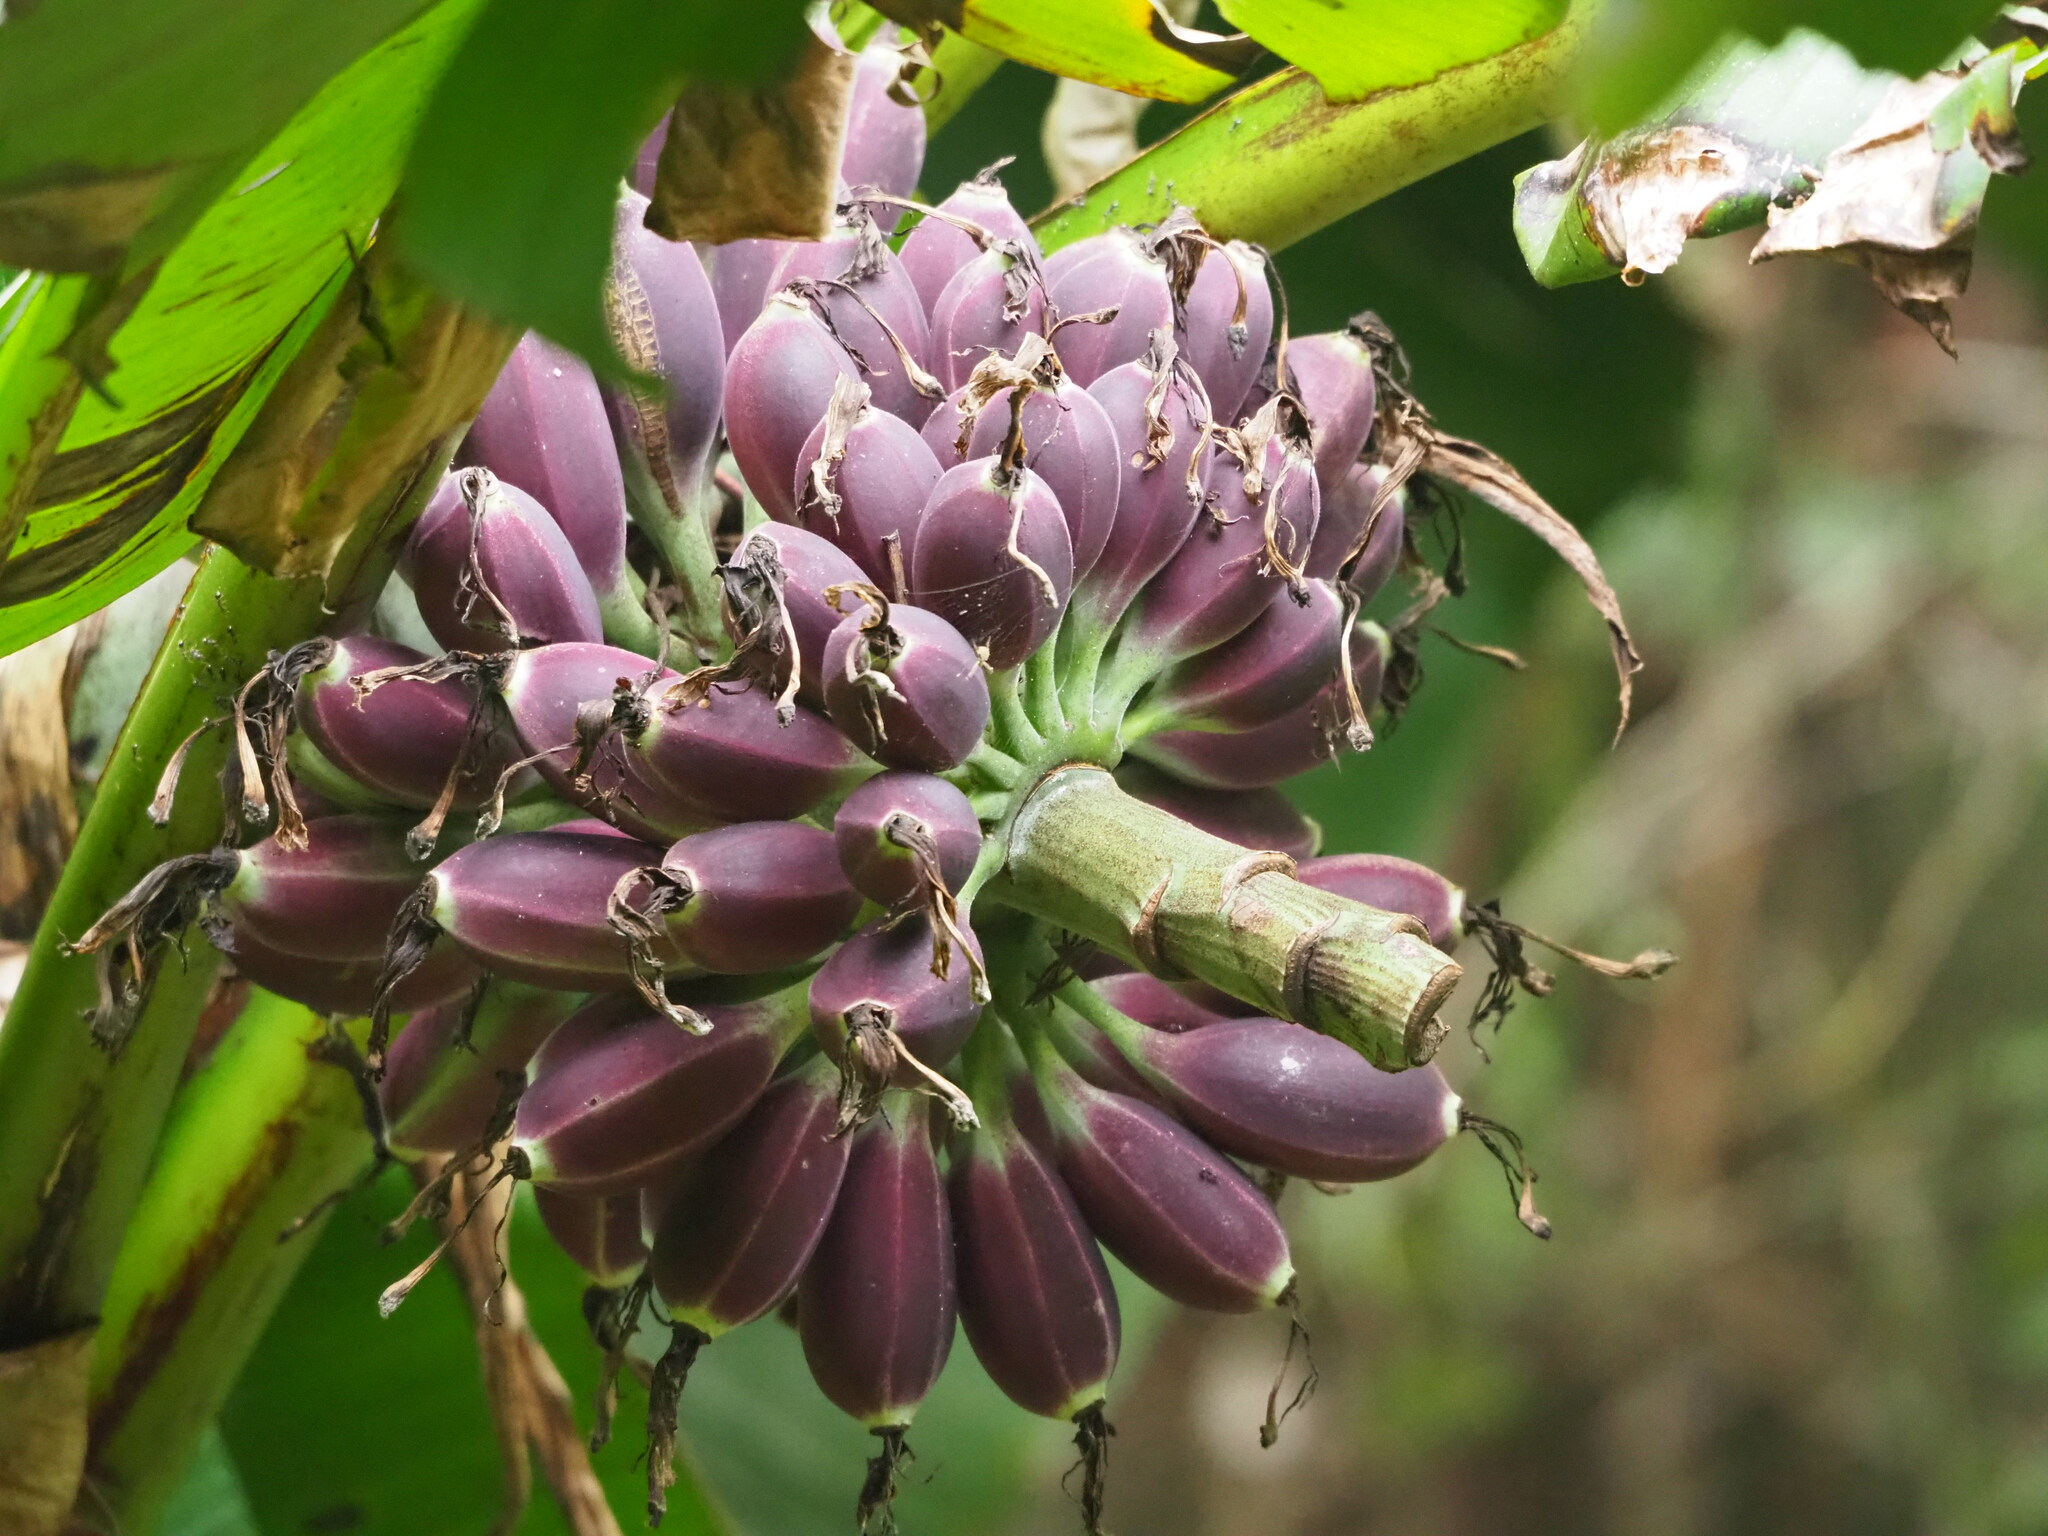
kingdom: Plantae
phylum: Tracheophyta
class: Liliopsida
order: Zingiberales
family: Musaceae
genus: Musa
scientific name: Musa itinerans
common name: Yunnan banana
